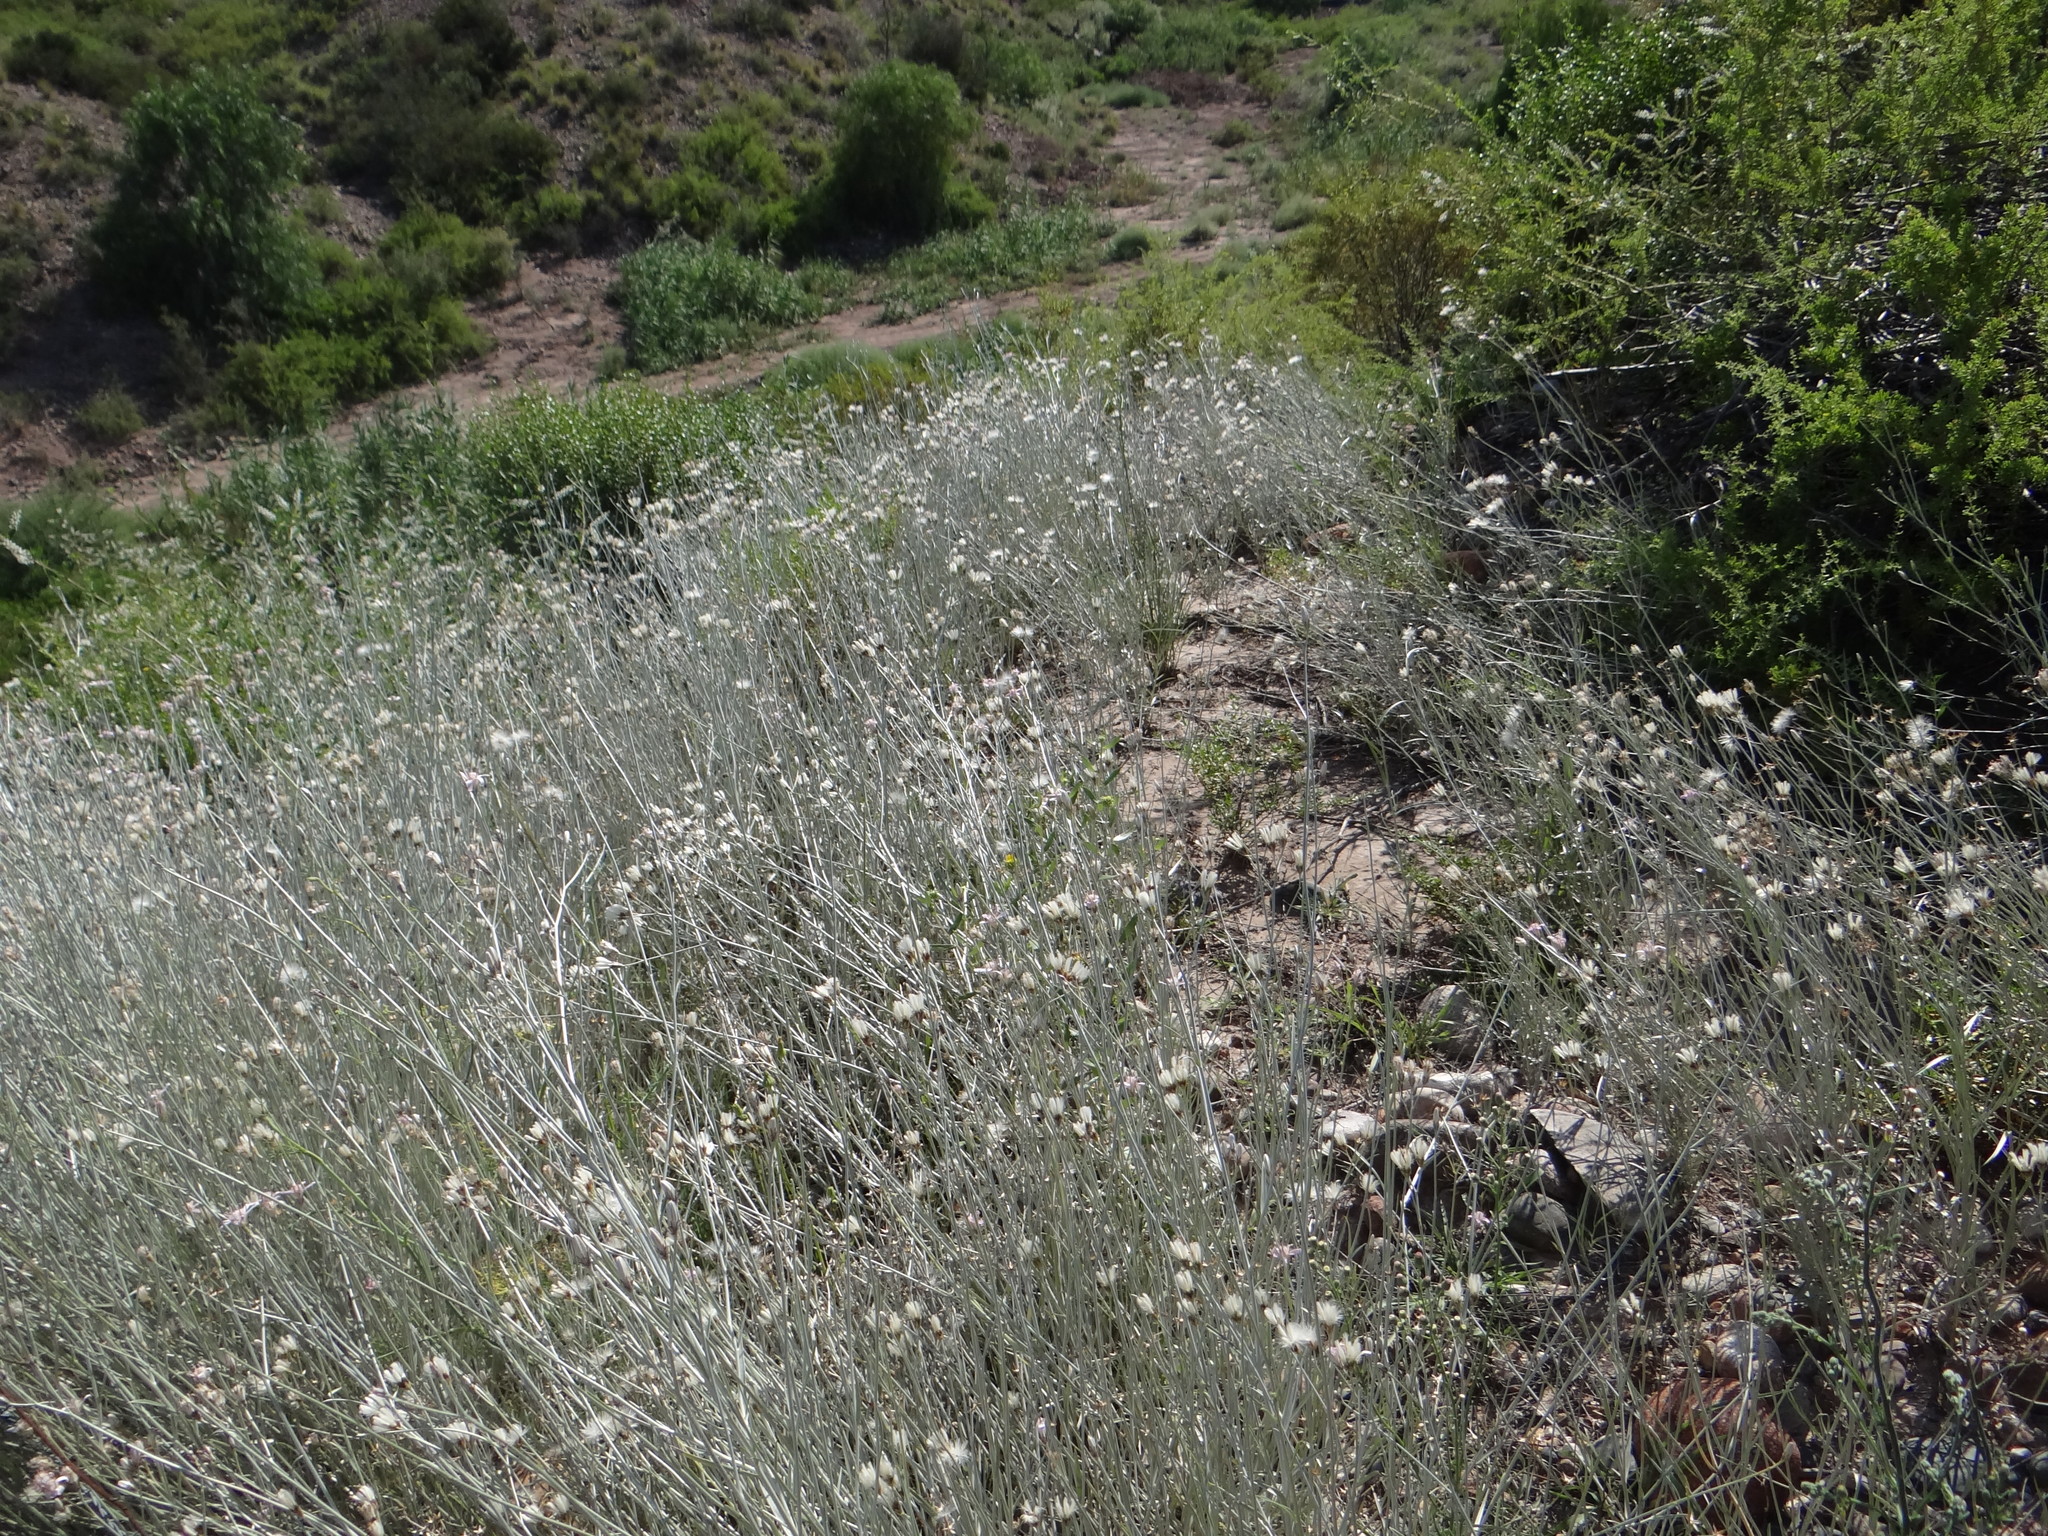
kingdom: Plantae
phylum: Tracheophyta
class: Magnoliopsida
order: Asterales
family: Asteraceae
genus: Hyalis
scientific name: Hyalis argentea
